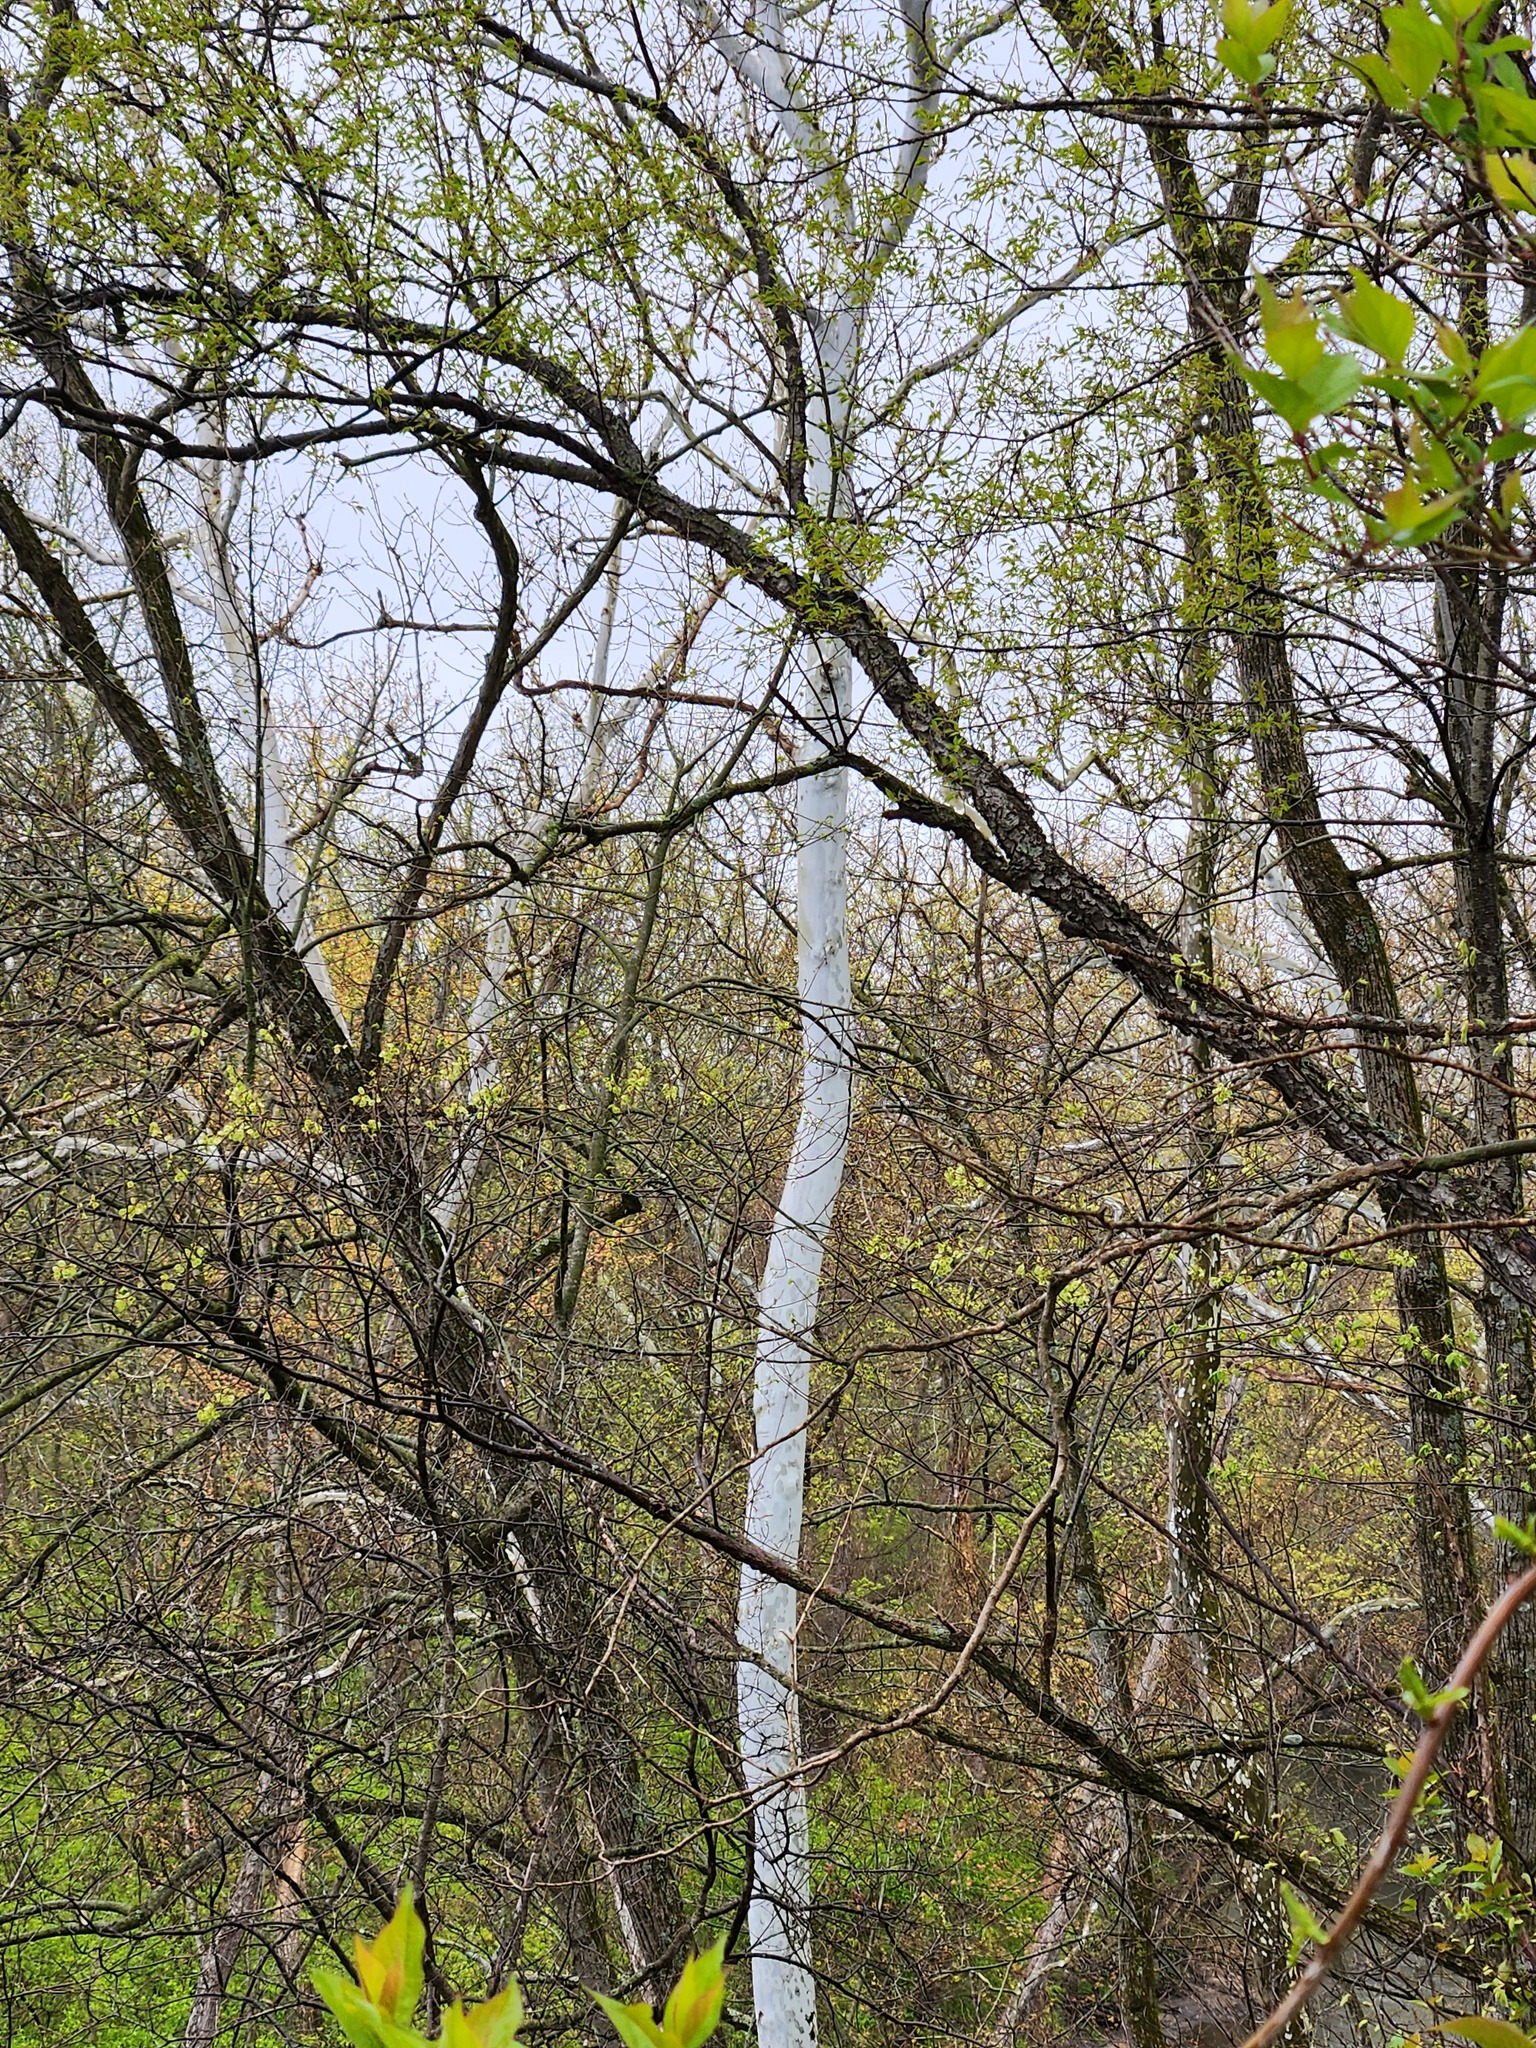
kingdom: Plantae
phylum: Tracheophyta
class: Magnoliopsida
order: Proteales
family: Platanaceae
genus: Platanus
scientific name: Platanus occidentalis
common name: American sycamore
